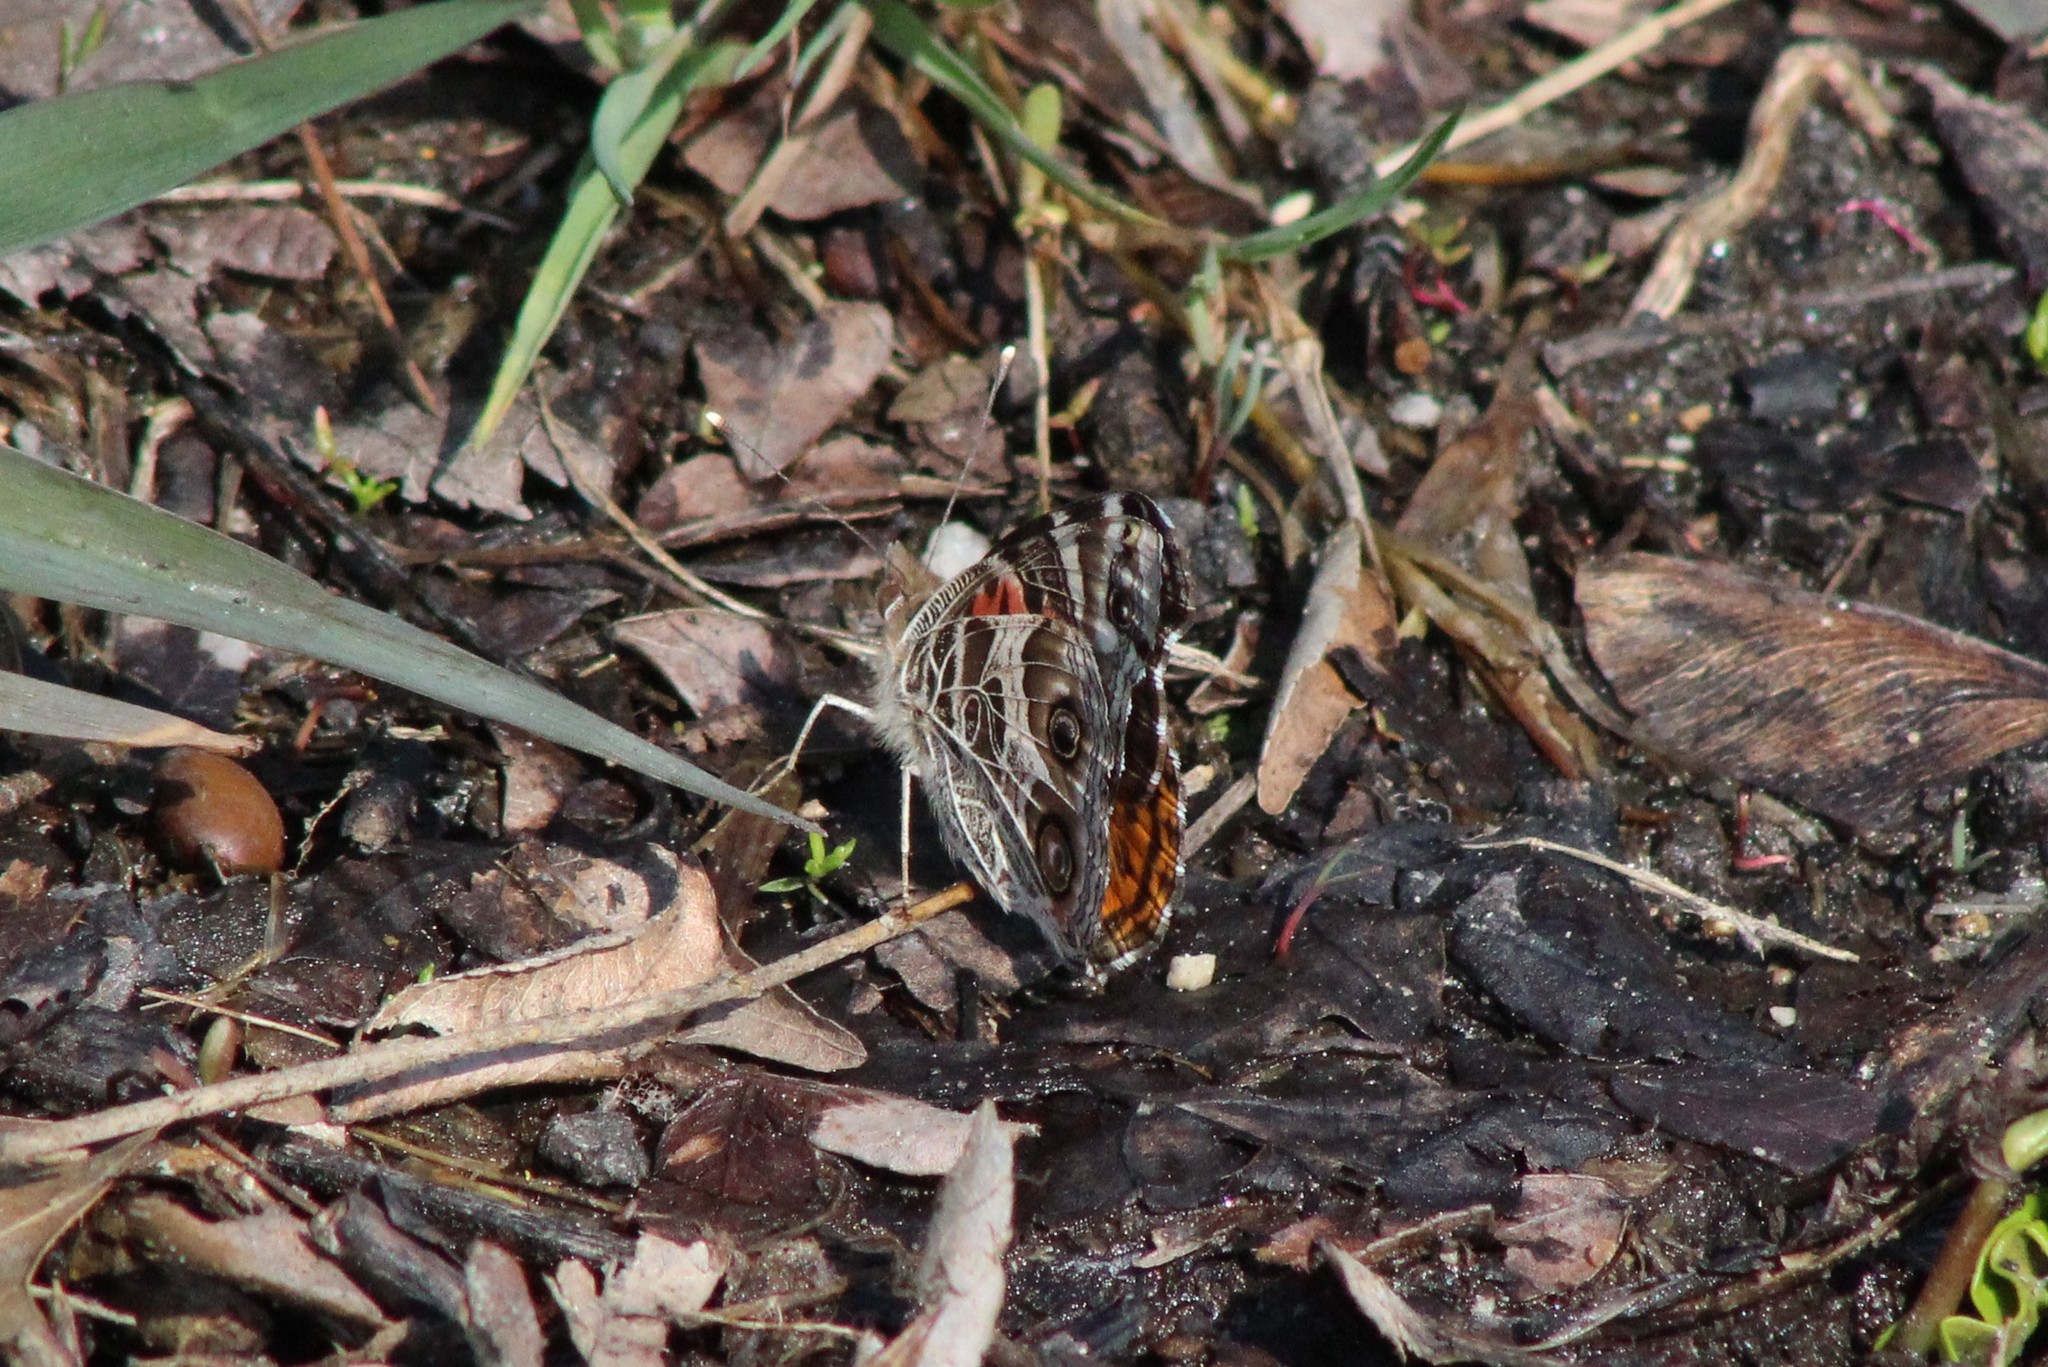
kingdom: Animalia
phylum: Arthropoda
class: Insecta
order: Lepidoptera
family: Nymphalidae
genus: Vanessa
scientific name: Vanessa virginiensis
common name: American lady
